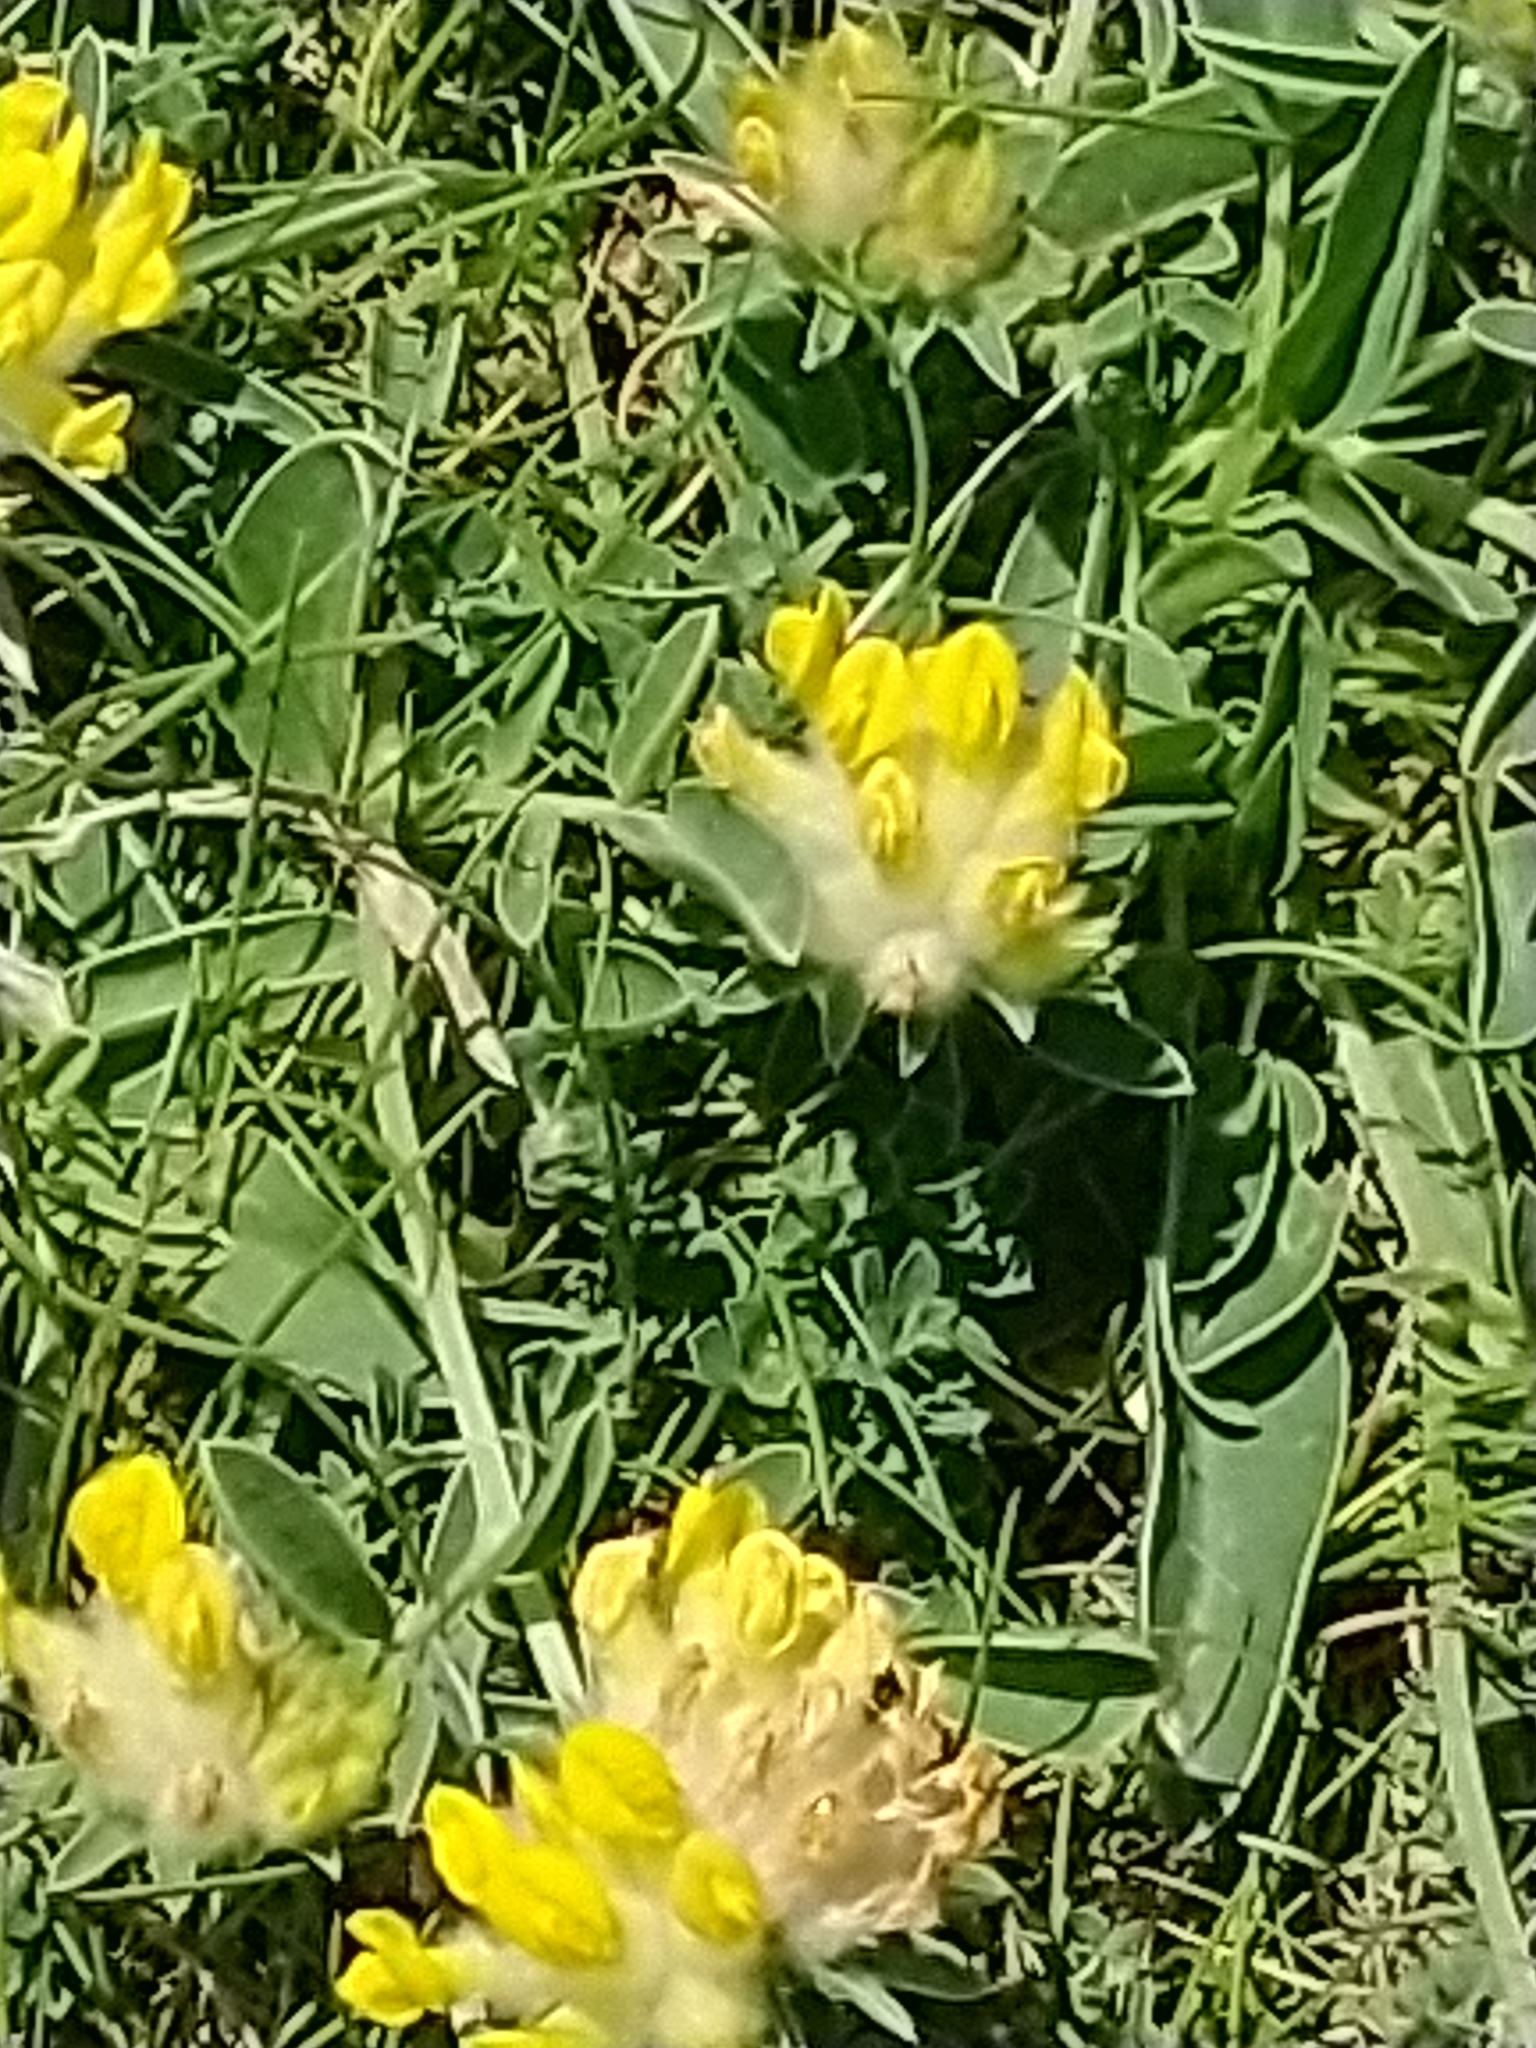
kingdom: Plantae
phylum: Tracheophyta
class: Magnoliopsida
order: Fabales
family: Fabaceae
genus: Anthyllis
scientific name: Anthyllis vulneraria
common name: Kidney vetch
